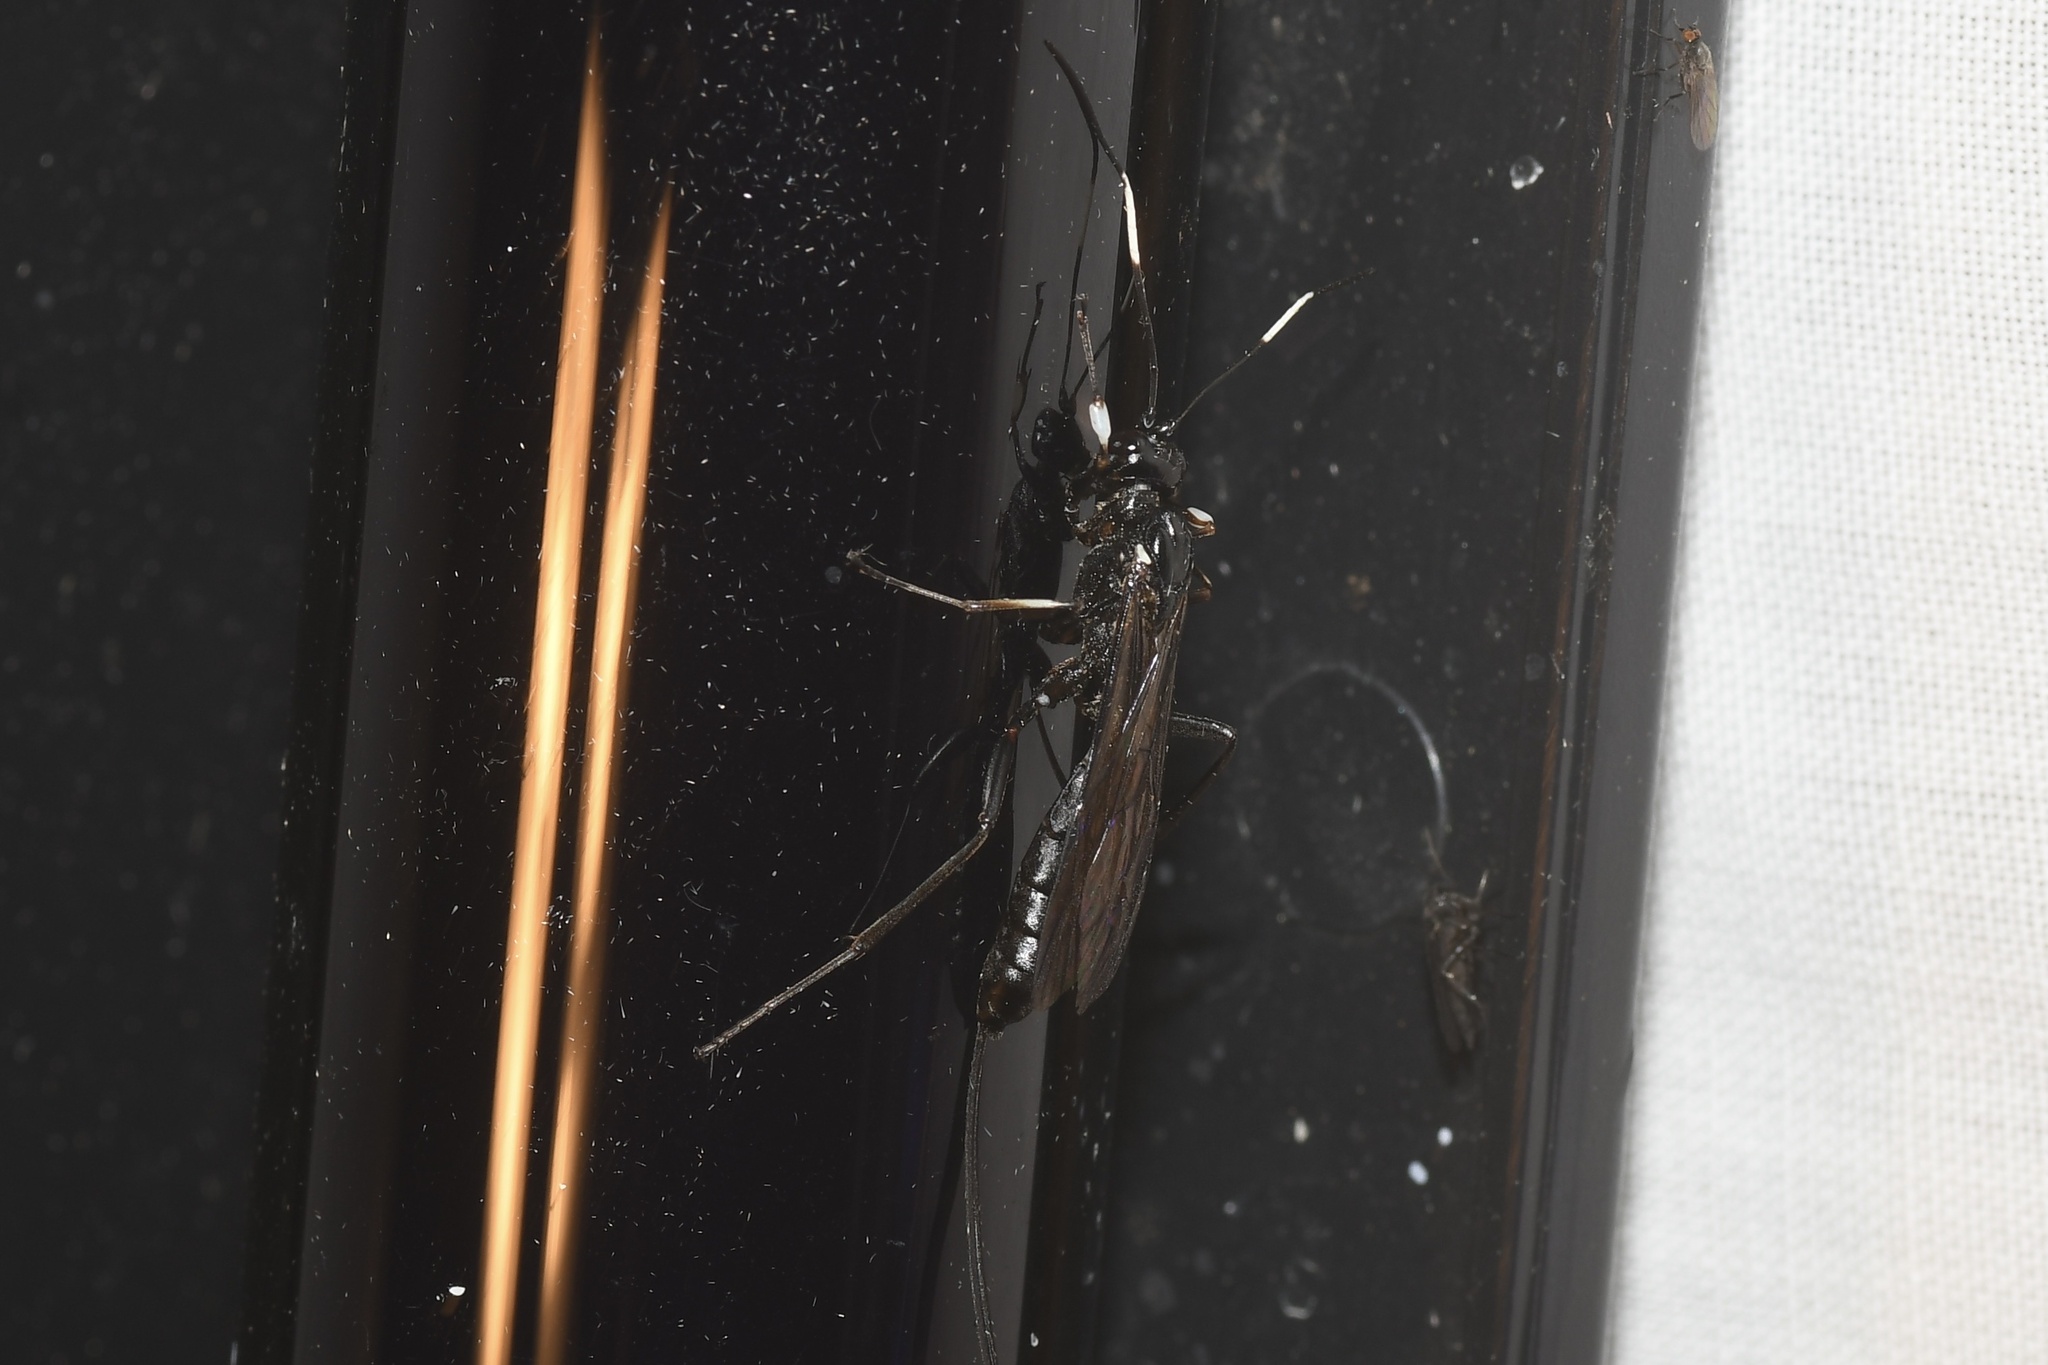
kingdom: Animalia
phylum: Arthropoda
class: Insecta
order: Hymenoptera
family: Ichneumonidae
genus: Echthrus
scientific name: Echthrus niger
